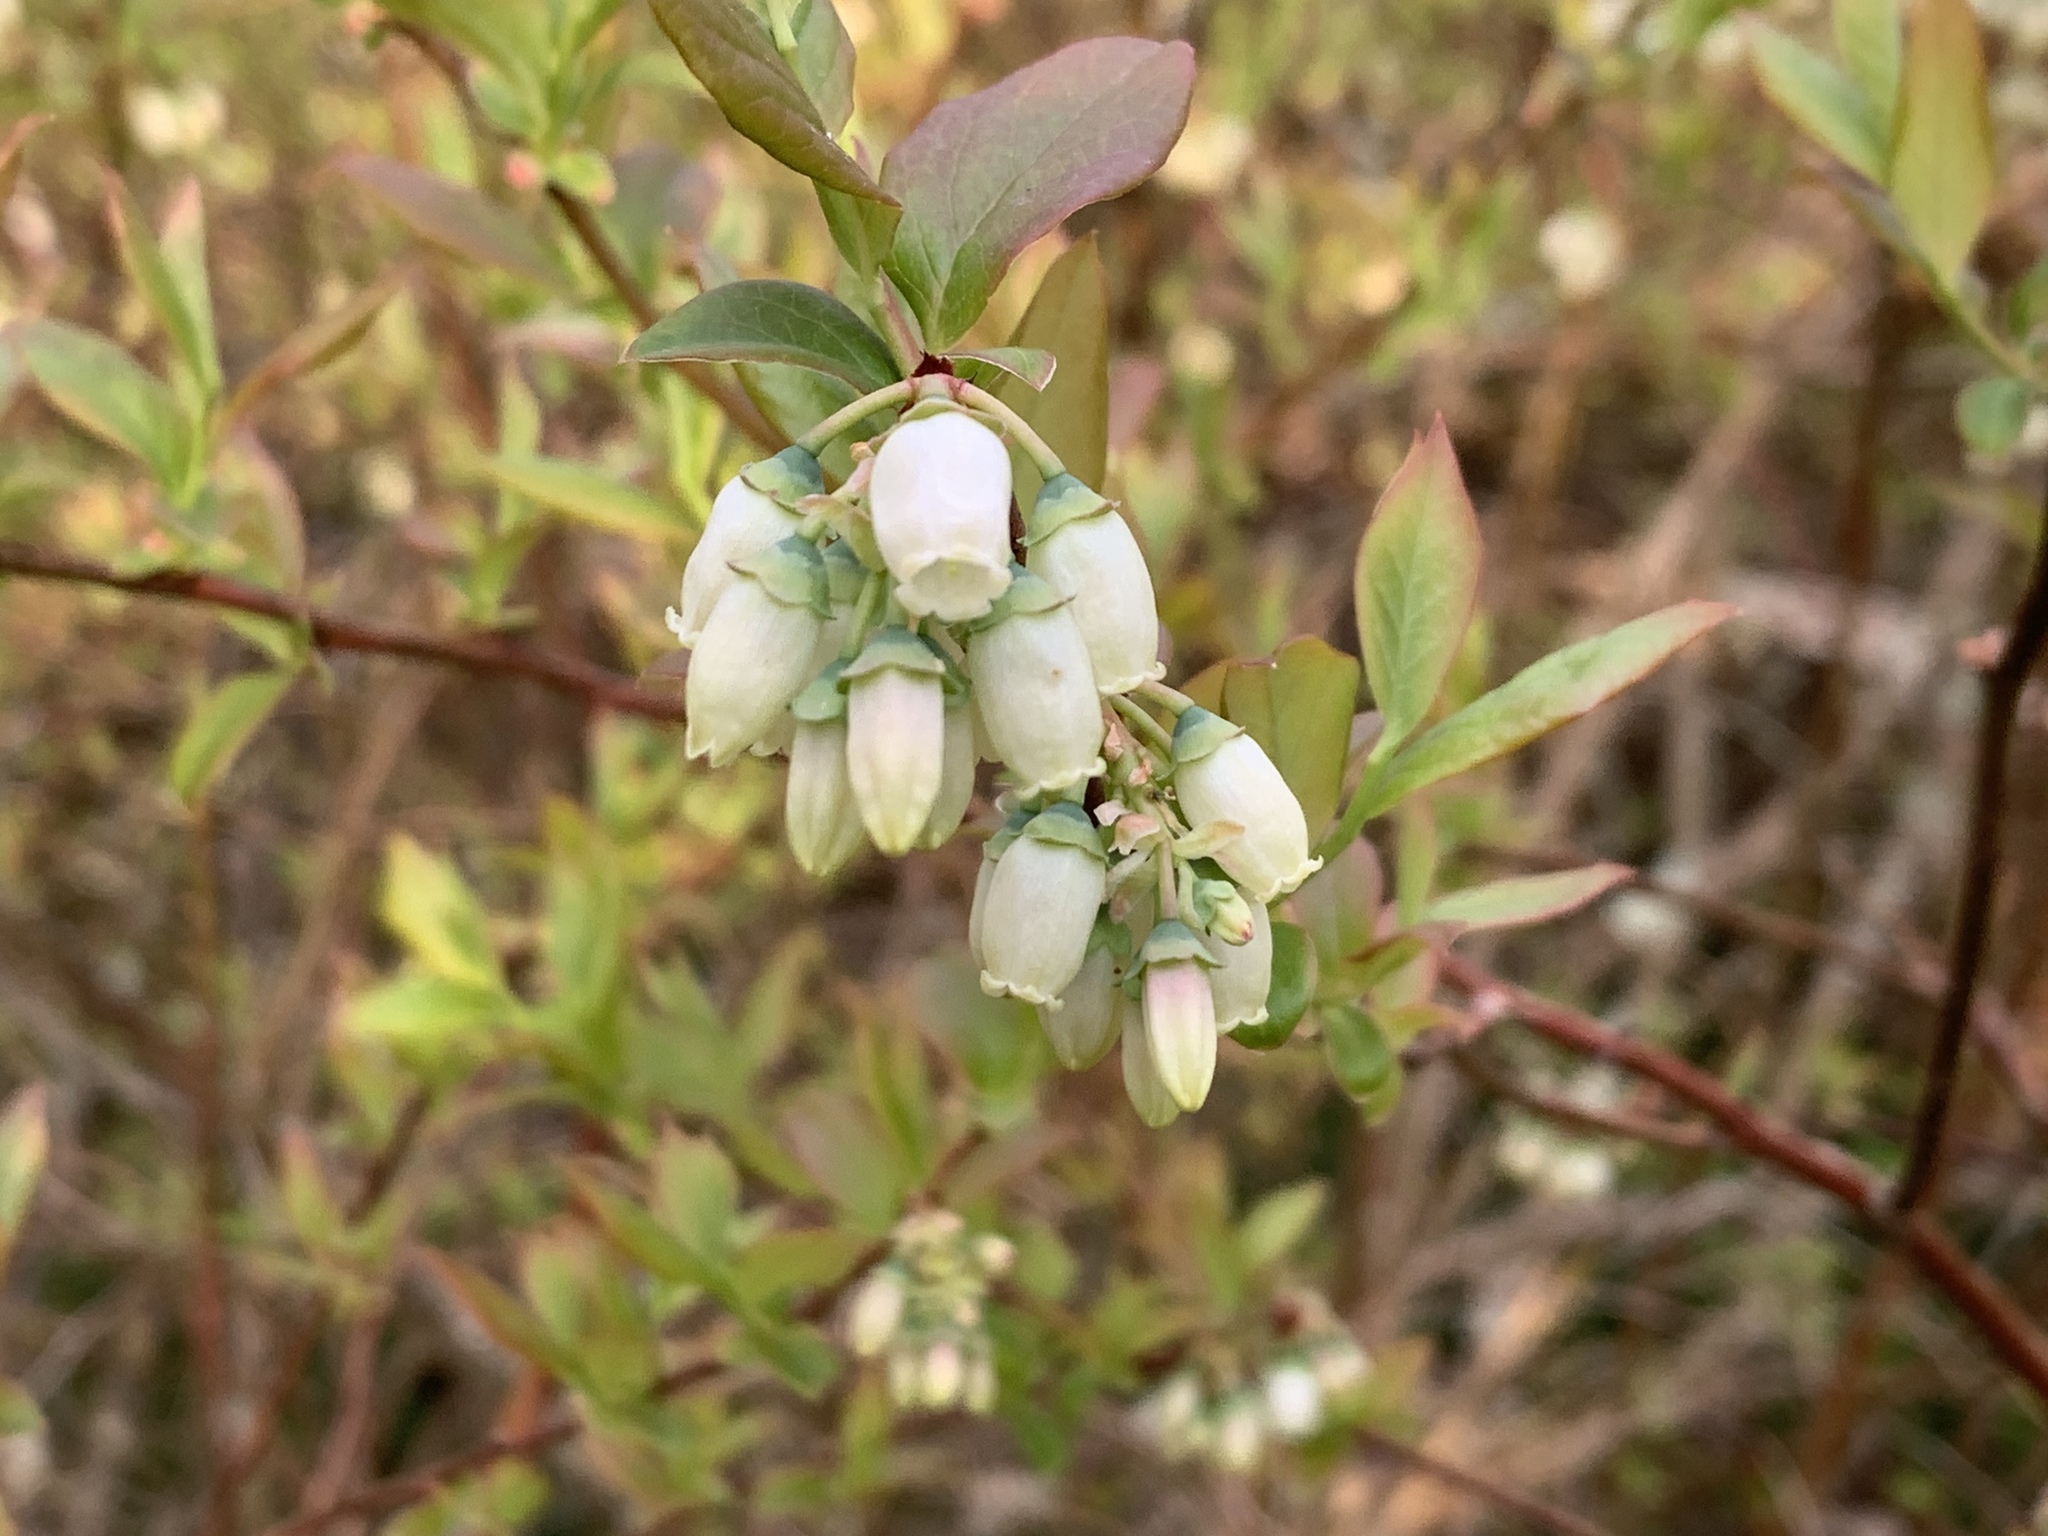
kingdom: Plantae
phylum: Tracheophyta
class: Magnoliopsida
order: Ericales
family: Ericaceae
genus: Vaccinium
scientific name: Vaccinium corymbosum
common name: Blueberry
